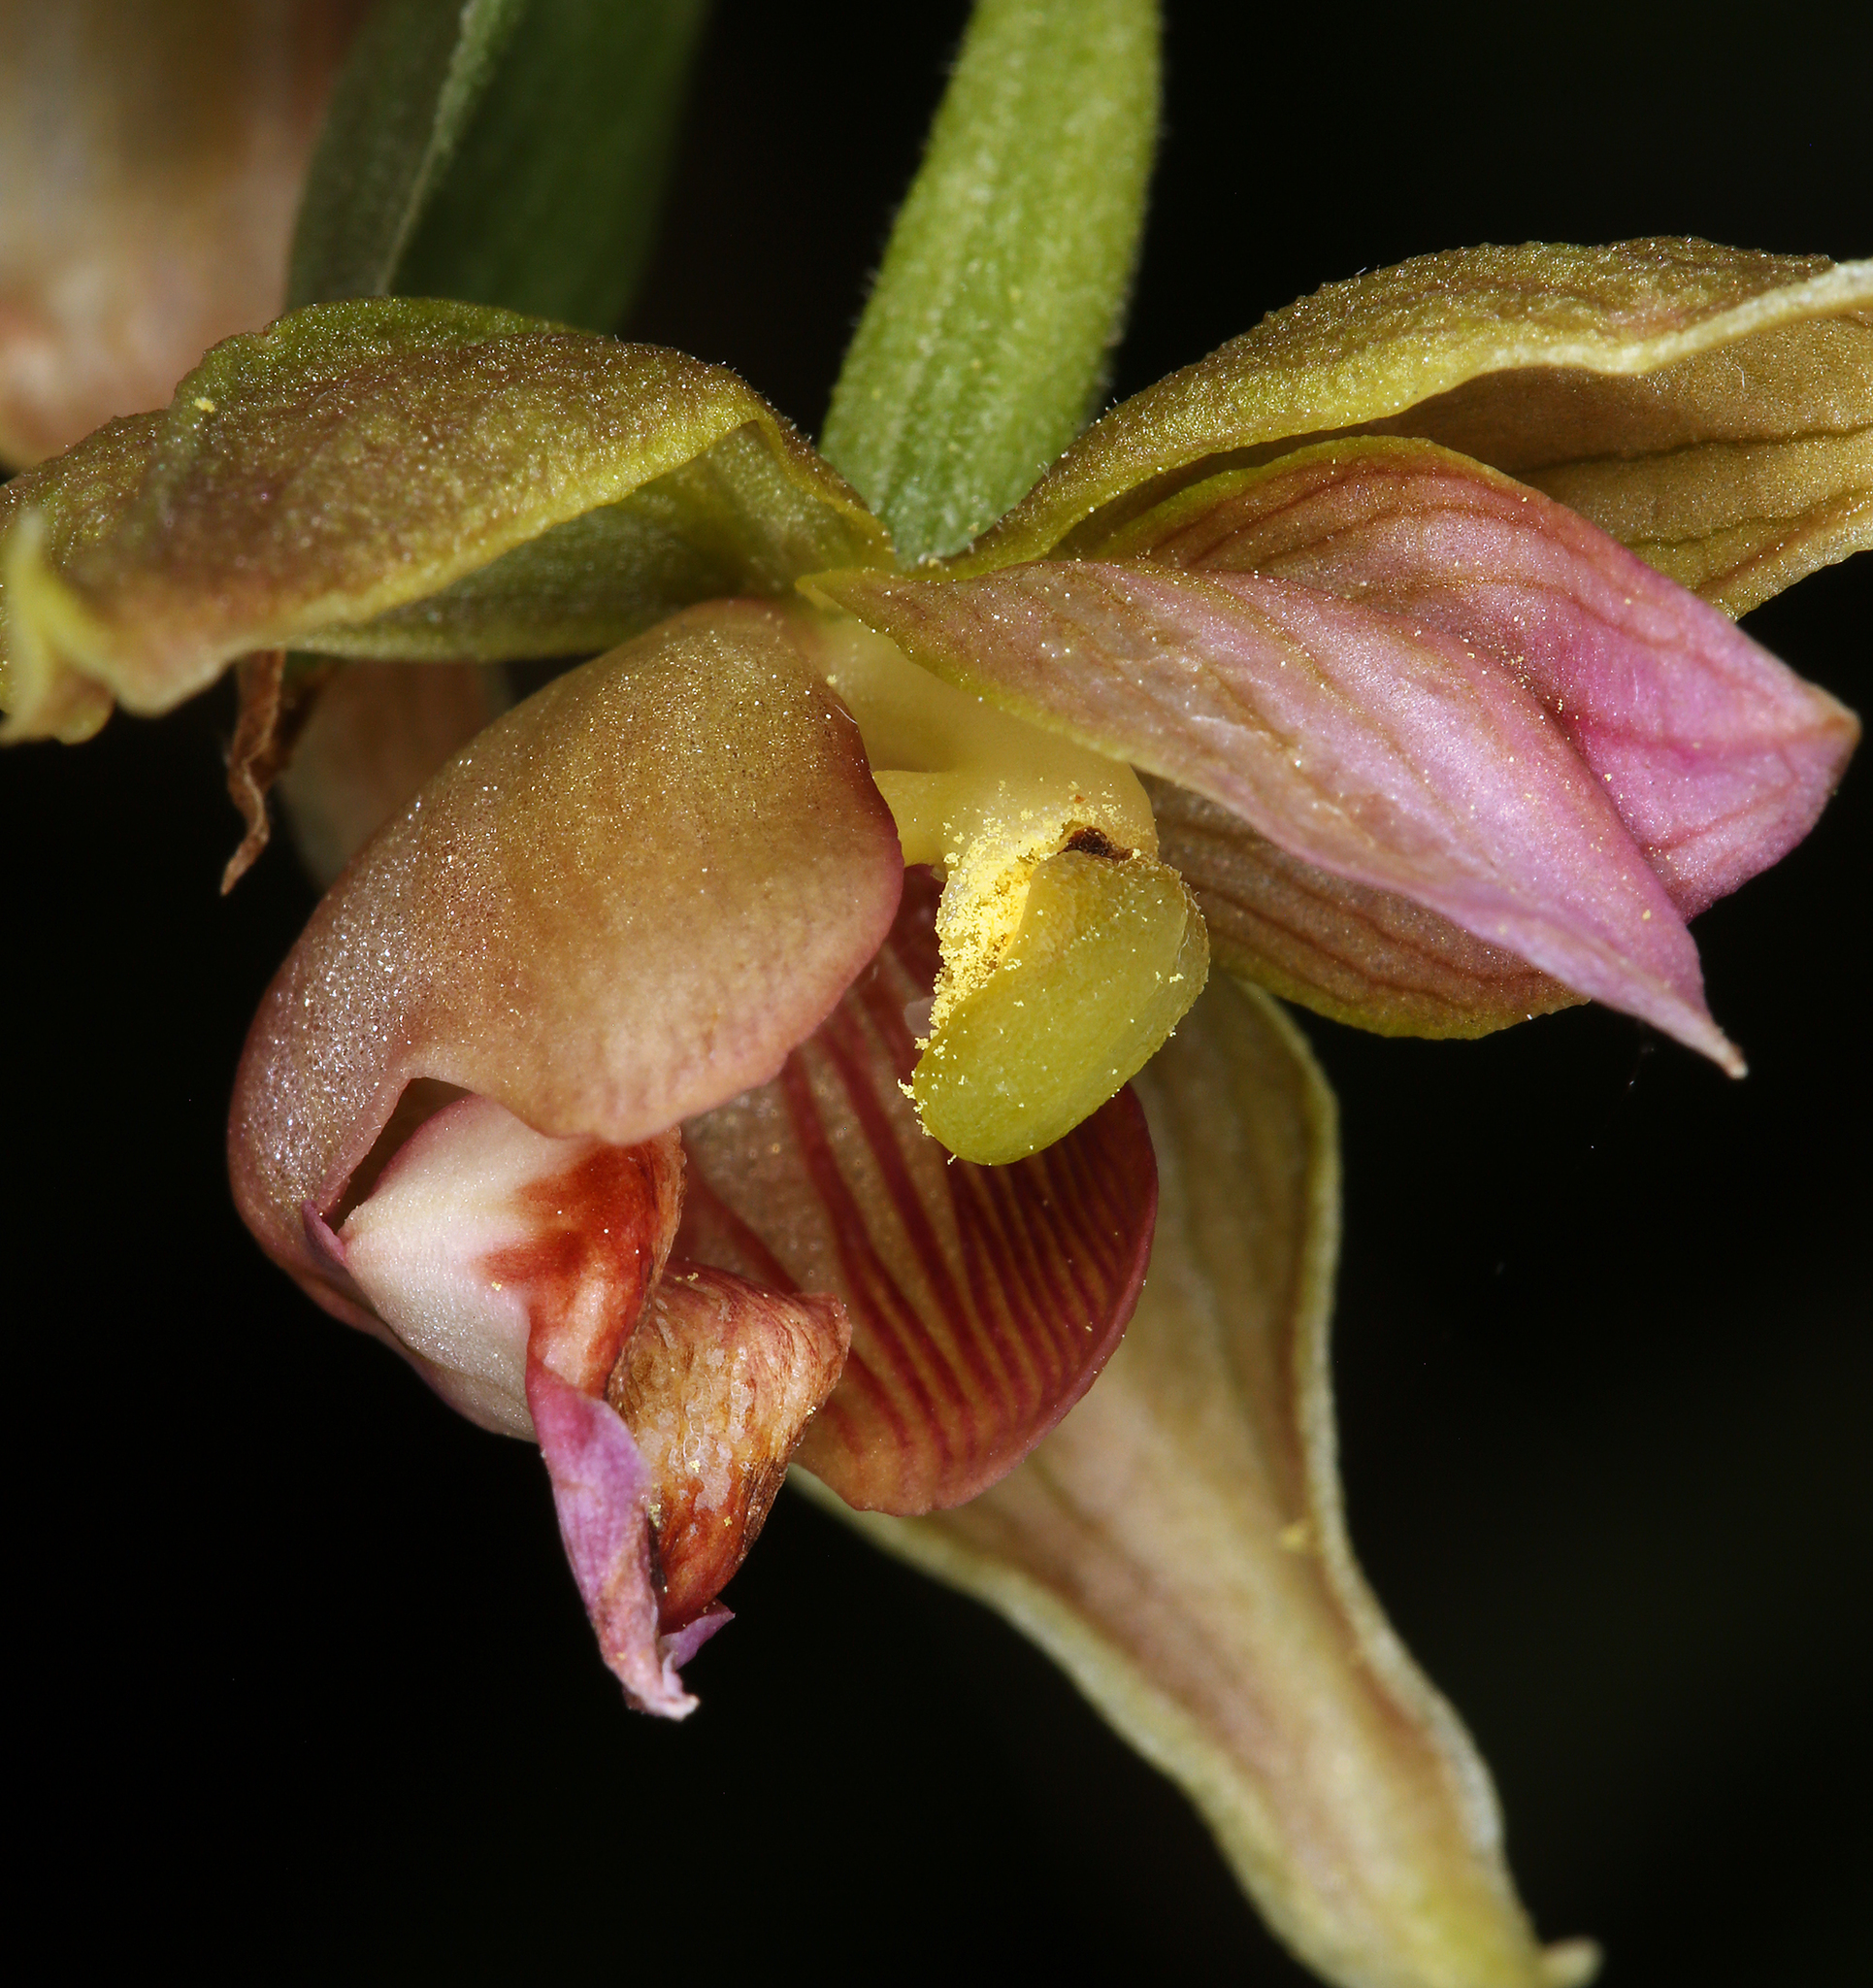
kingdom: Plantae
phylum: Tracheophyta
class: Liliopsida
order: Asparagales
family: Orchidaceae
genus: Epipactis
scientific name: Epipactis gigantea
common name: Chatterbox
